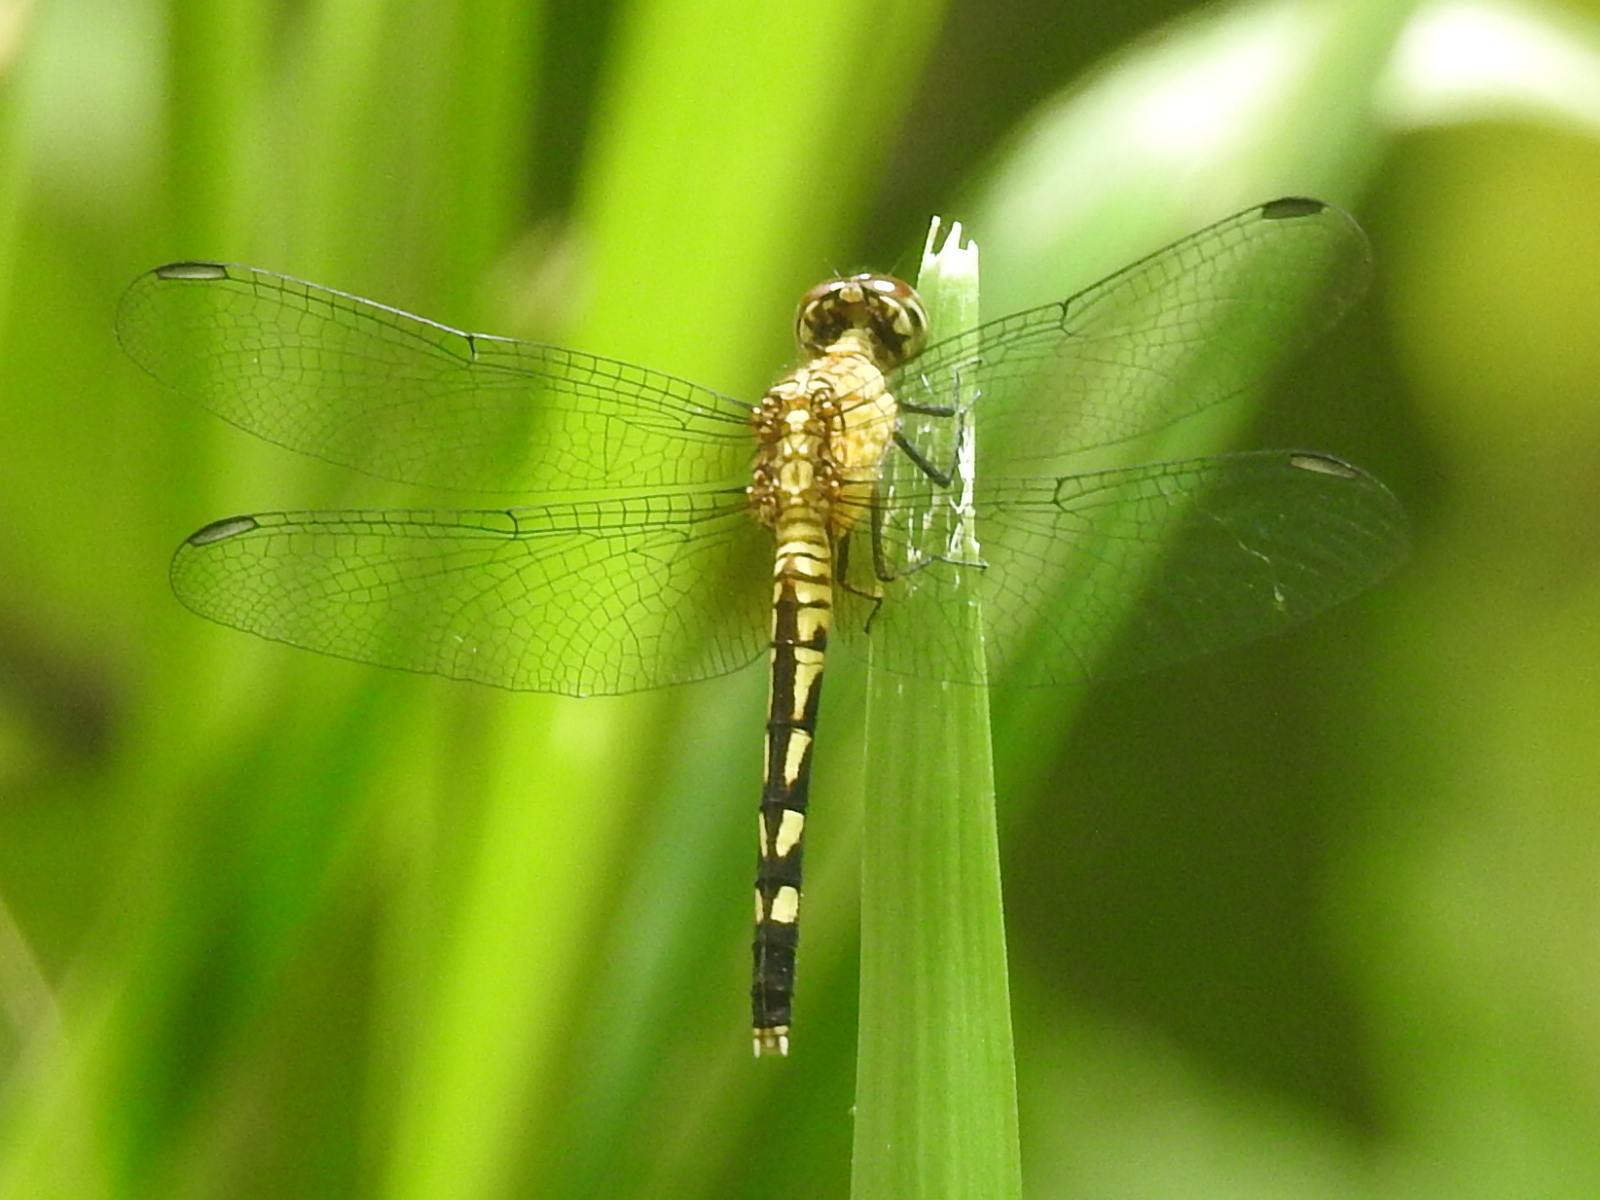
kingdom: Animalia
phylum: Arthropoda
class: Insecta
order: Odonata
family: Libellulidae
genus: Erythrodiplax
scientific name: Erythrodiplax fervida
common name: Red-mantled dragonlet
